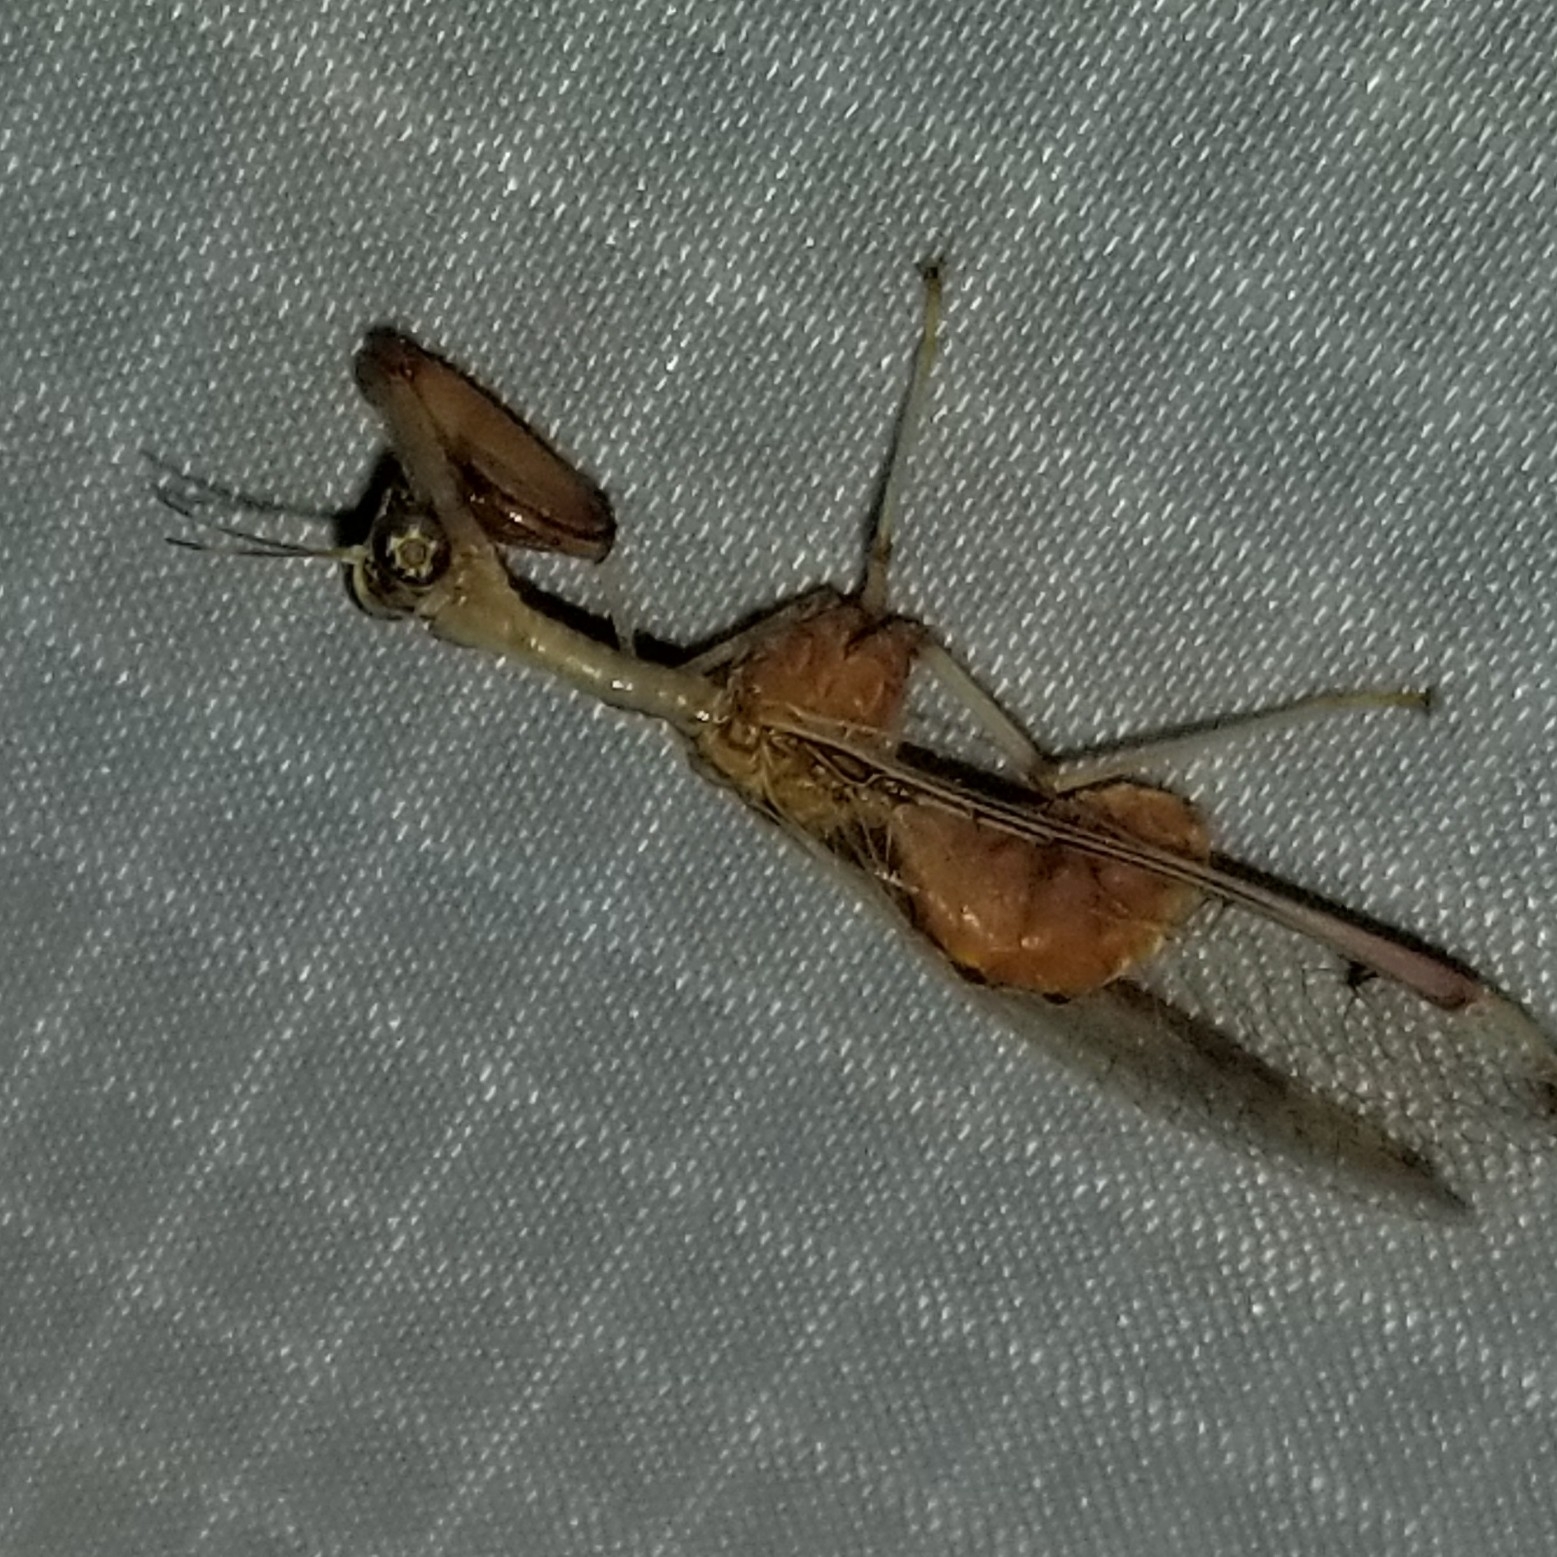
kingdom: Animalia
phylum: Arthropoda
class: Insecta
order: Neuroptera
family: Mantispidae
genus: Dicromantispa
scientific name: Dicromantispa interrupta
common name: Four-spotted mantidfly
